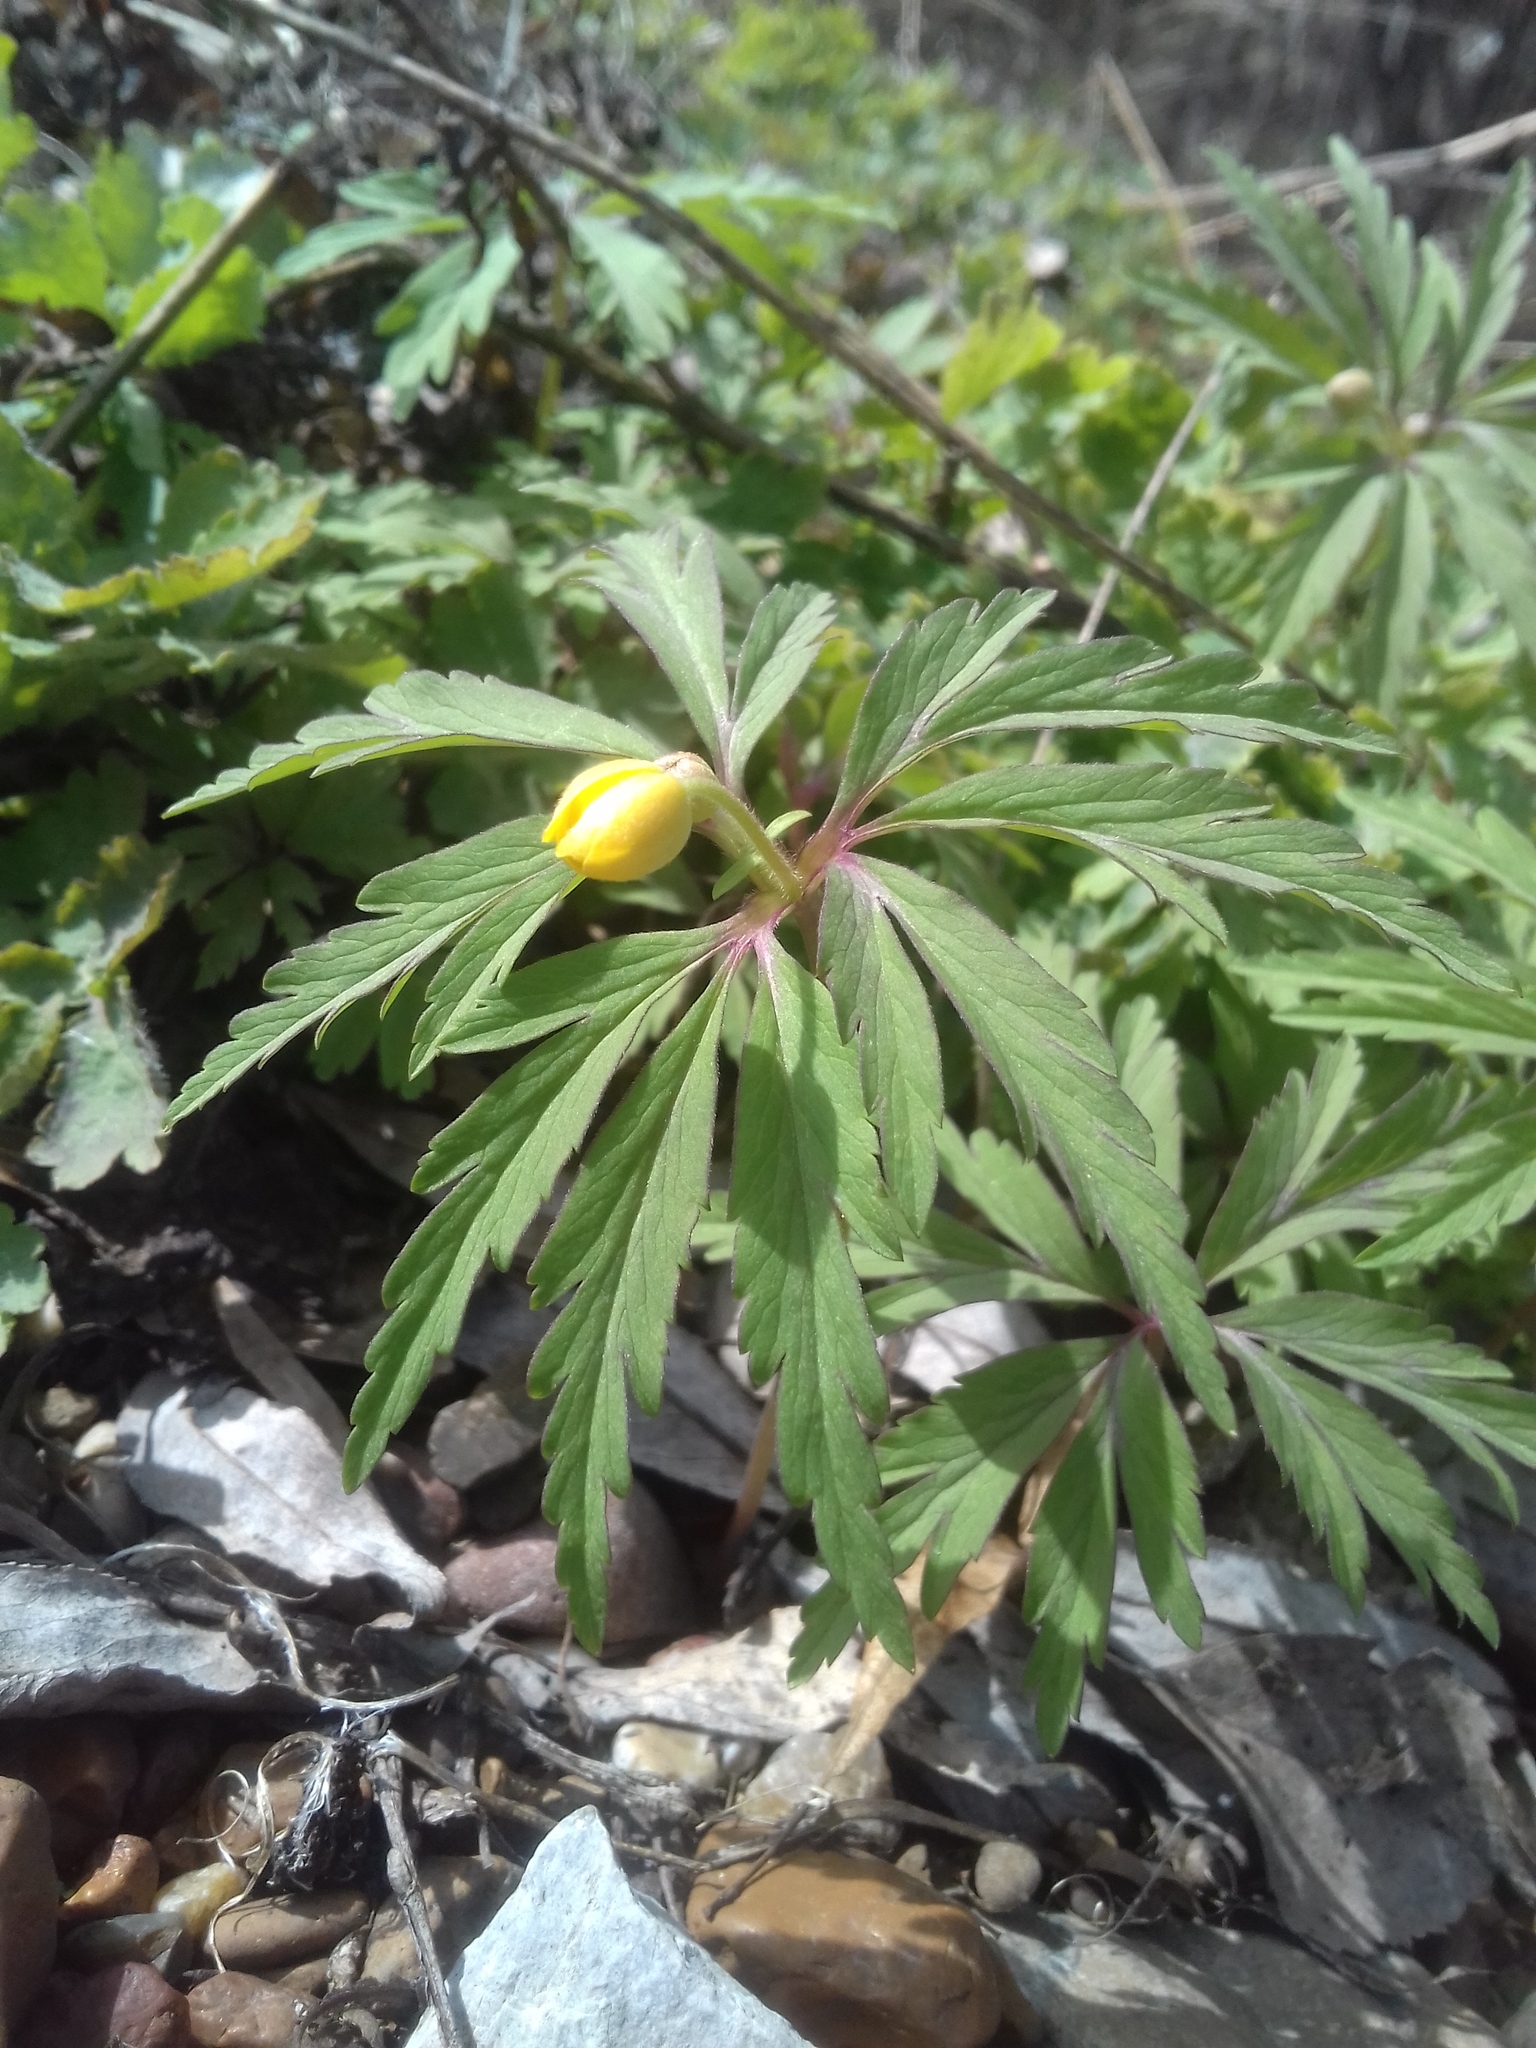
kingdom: Plantae
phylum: Tracheophyta
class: Magnoliopsida
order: Ranunculales
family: Ranunculaceae
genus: Anemone
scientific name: Anemone ranunculoides
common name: Yellow anemone
